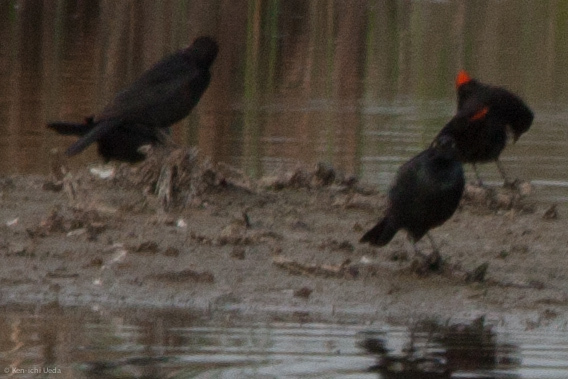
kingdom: Animalia
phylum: Chordata
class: Aves
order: Passeriformes
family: Icteridae
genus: Agelaius
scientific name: Agelaius phoeniceus
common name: Red-winged blackbird
